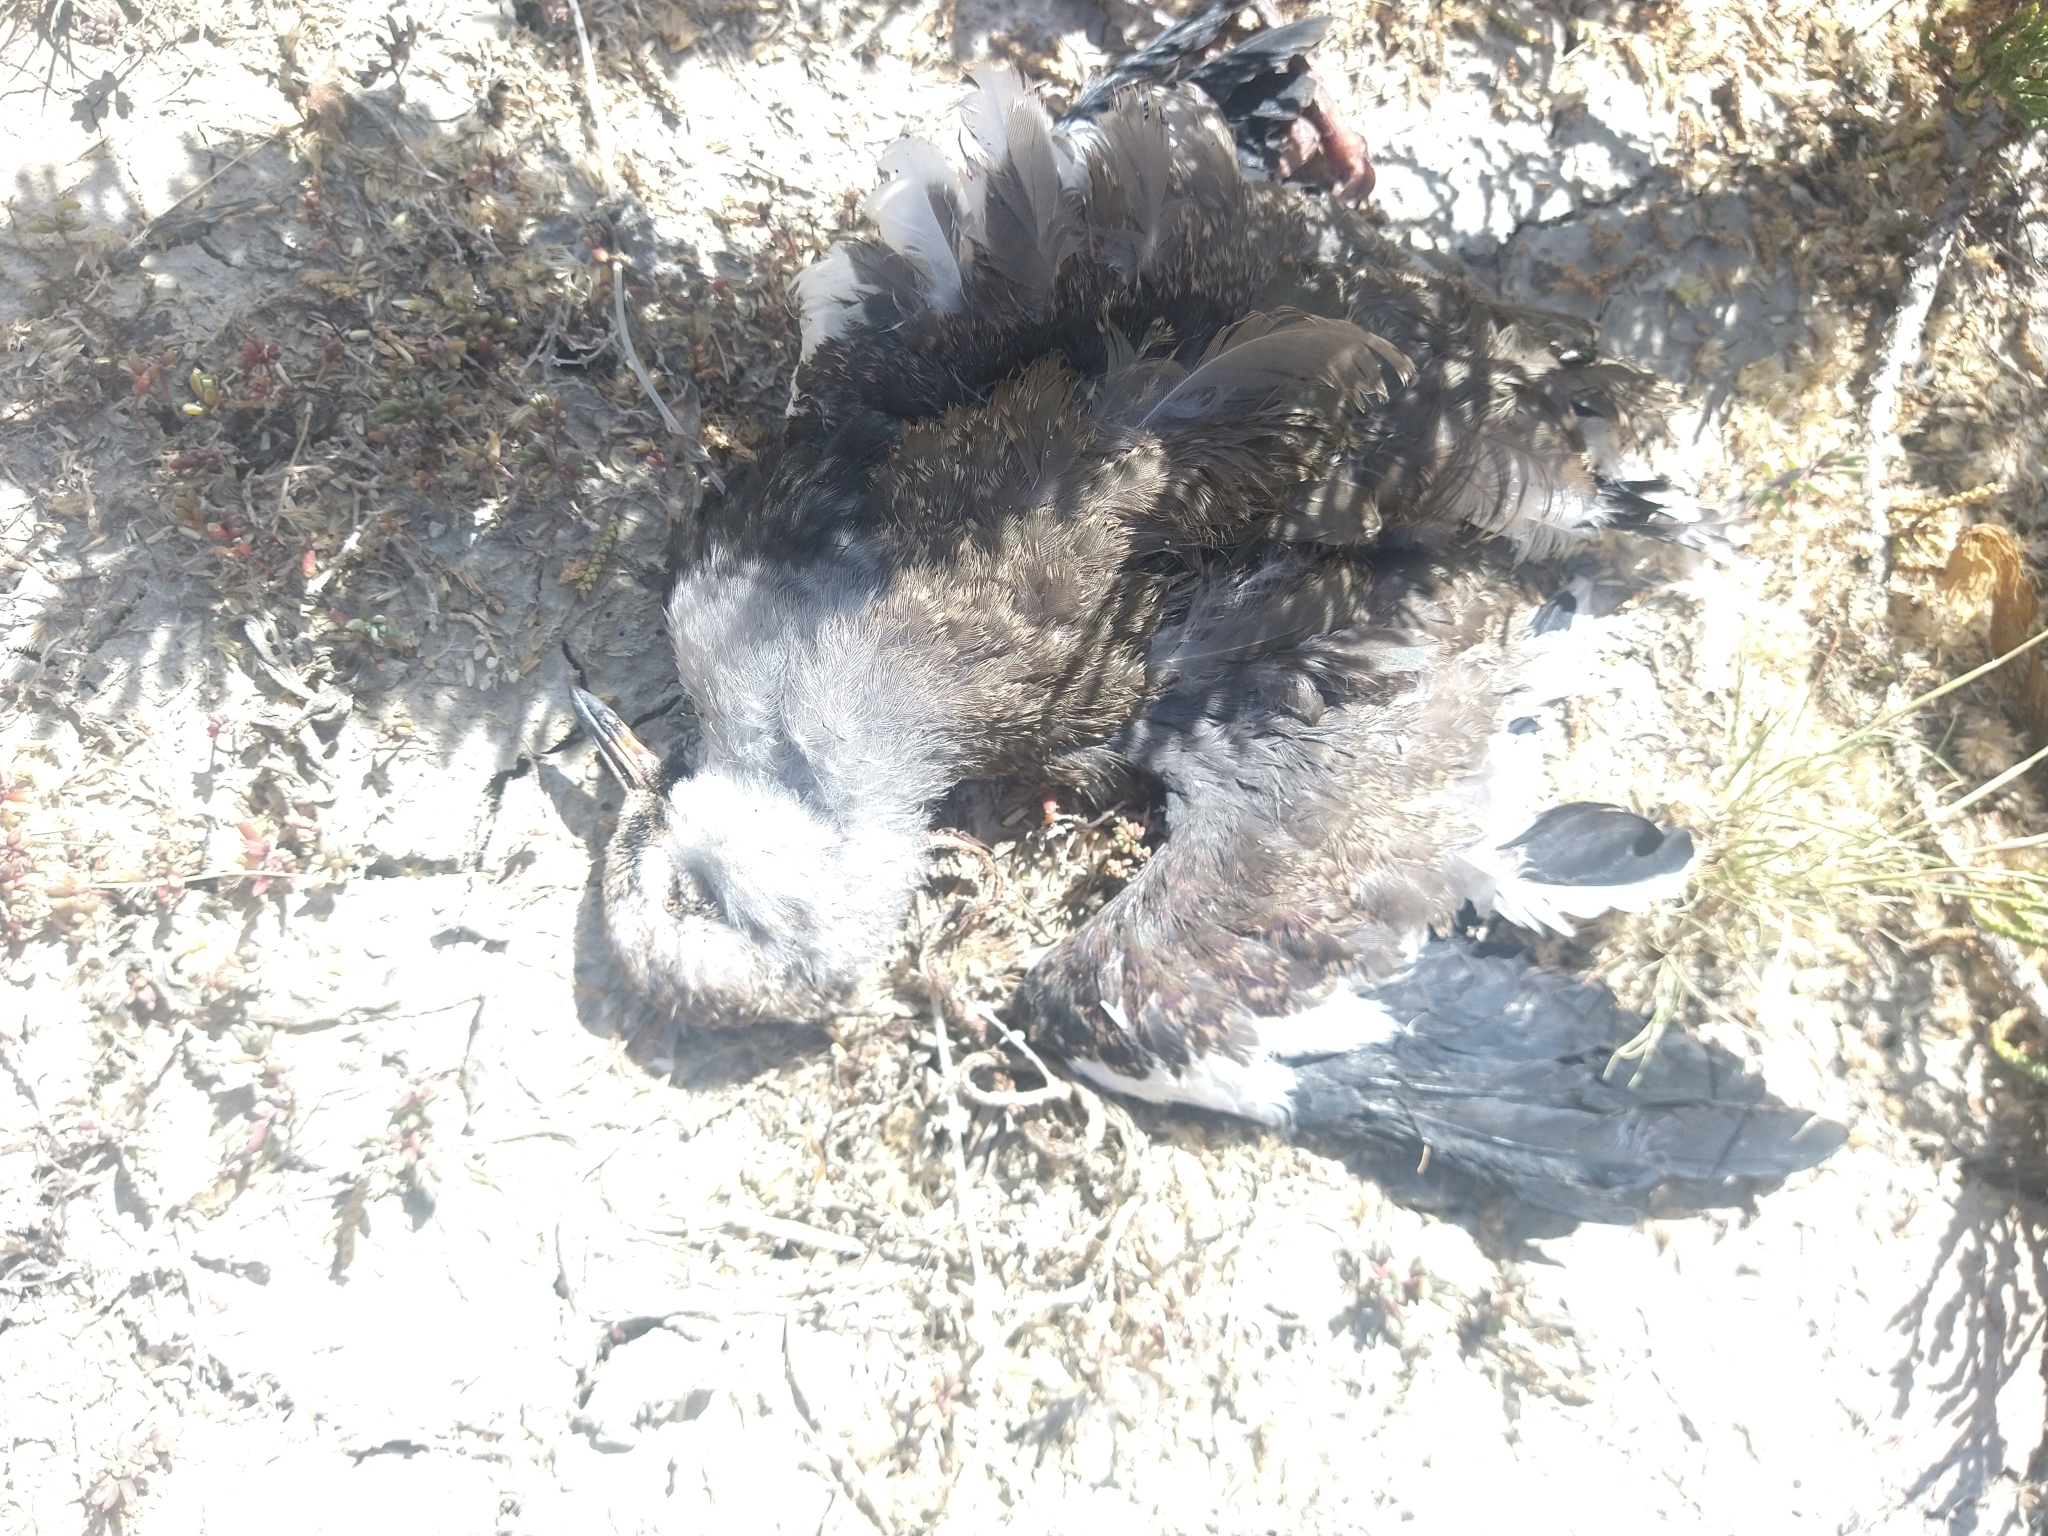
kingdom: Animalia
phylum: Chordata
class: Aves
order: Charadriiformes
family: Charadriidae
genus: Vanellus
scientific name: Vanellus chilensis
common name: Southern lapwing
